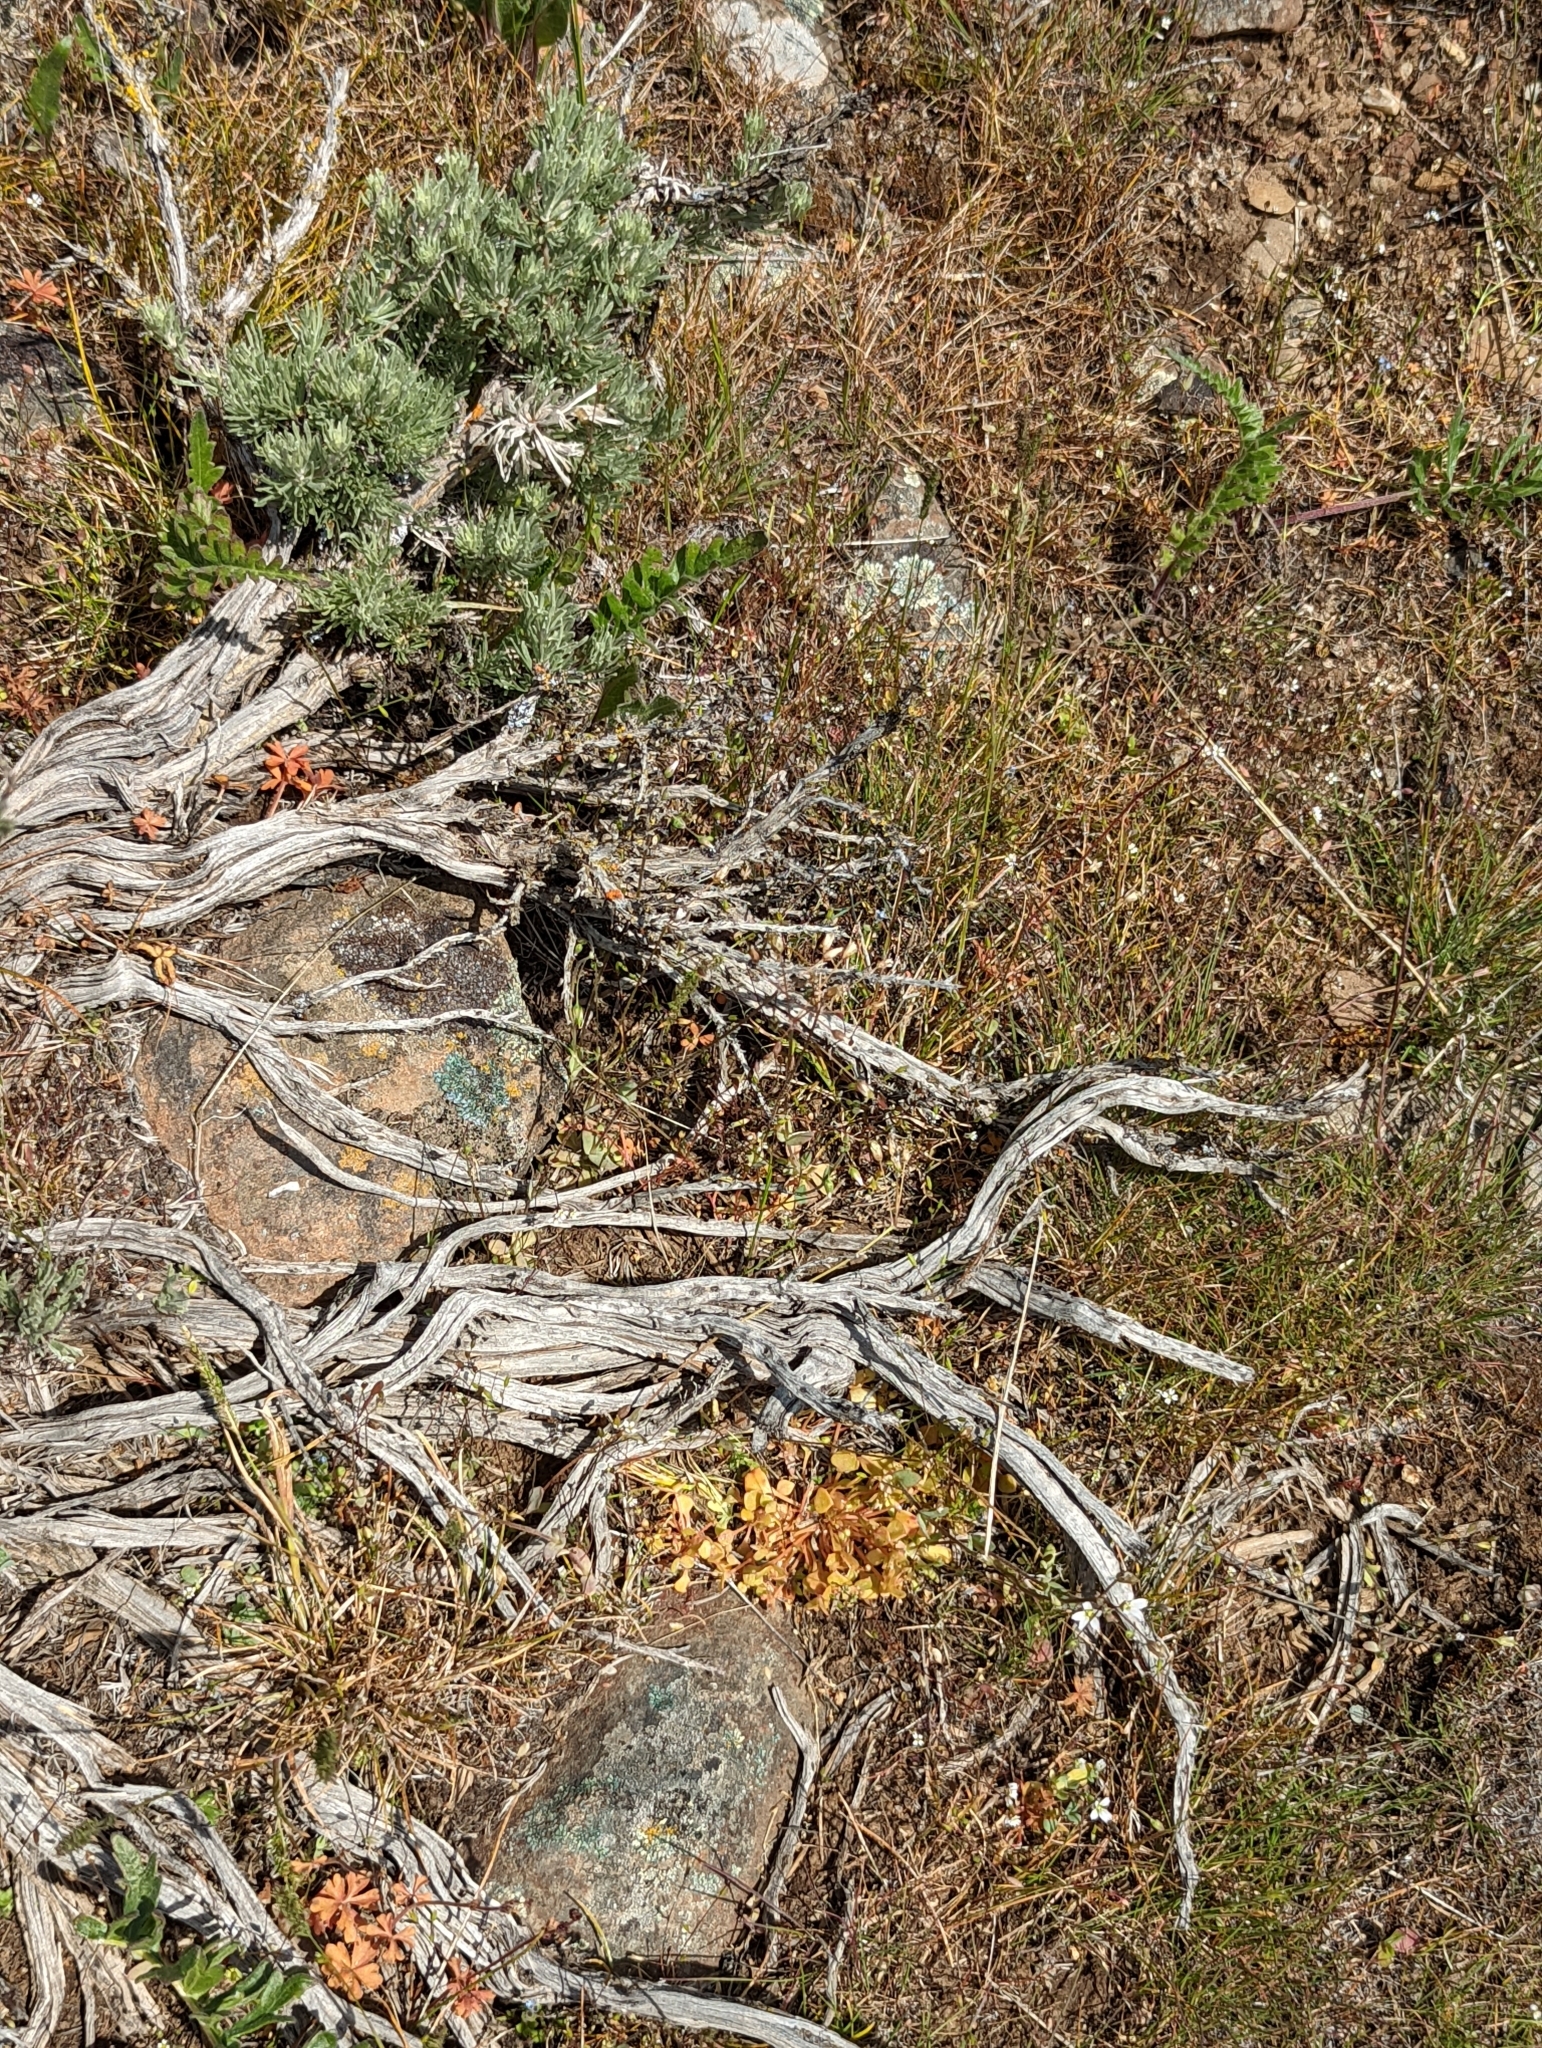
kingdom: Plantae
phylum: Tracheophyta
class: Magnoliopsida
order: Caryophyllales
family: Montiaceae
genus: Claytonia
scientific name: Claytonia rubra
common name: Erubescent miner's-lettuce
